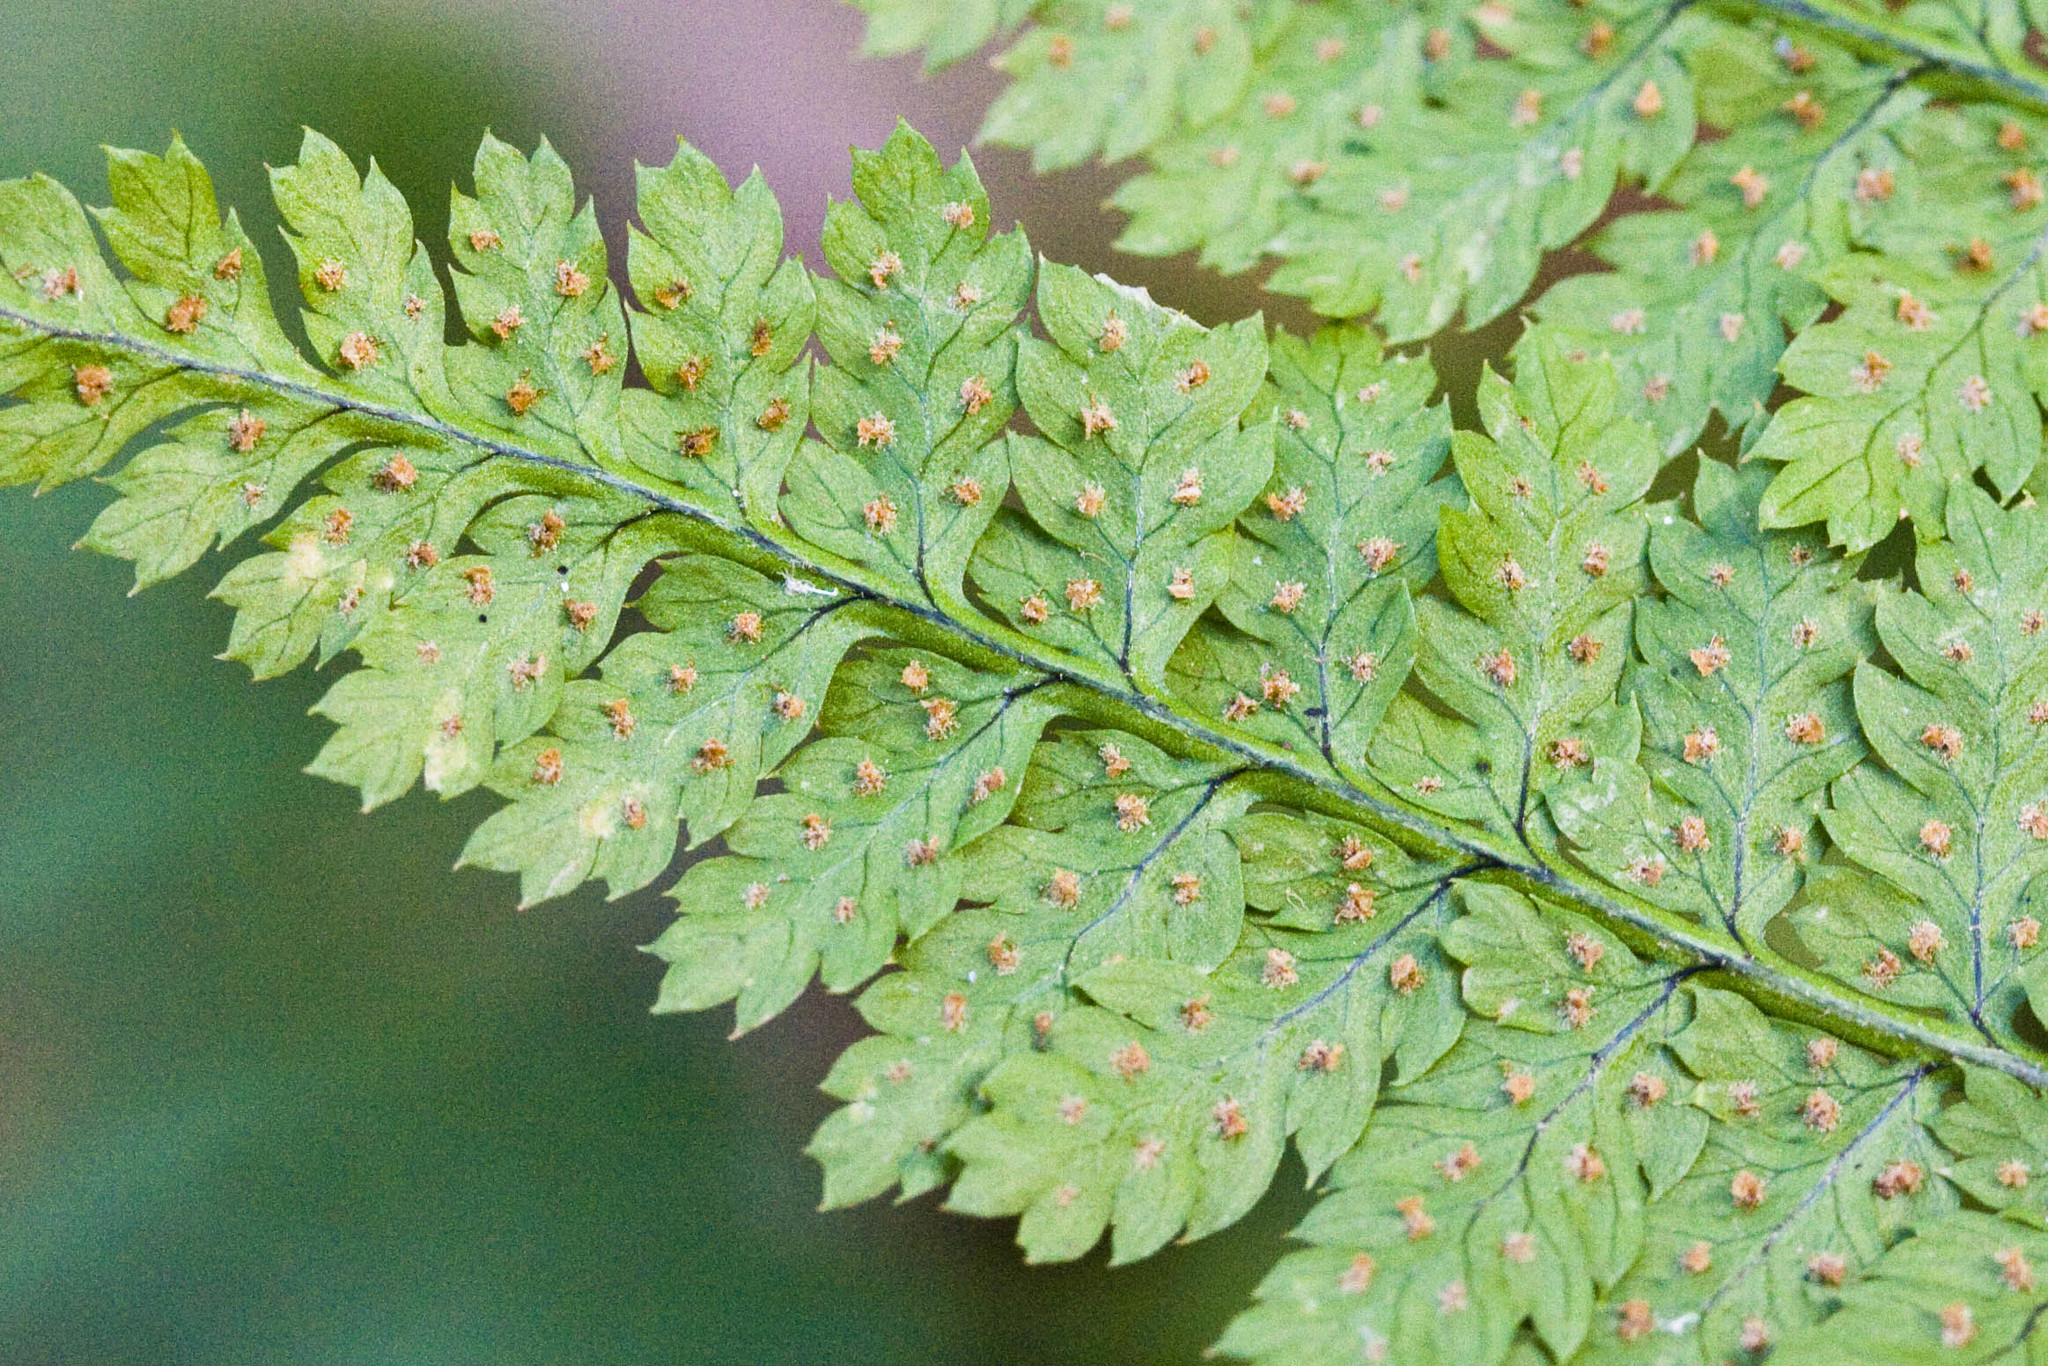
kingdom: Plantae
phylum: Tracheophyta
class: Polypodiopsida
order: Polypodiales
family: Dryopteridaceae
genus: Dryopteris
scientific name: Dryopteris intermedia
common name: Evergreen wood fern
